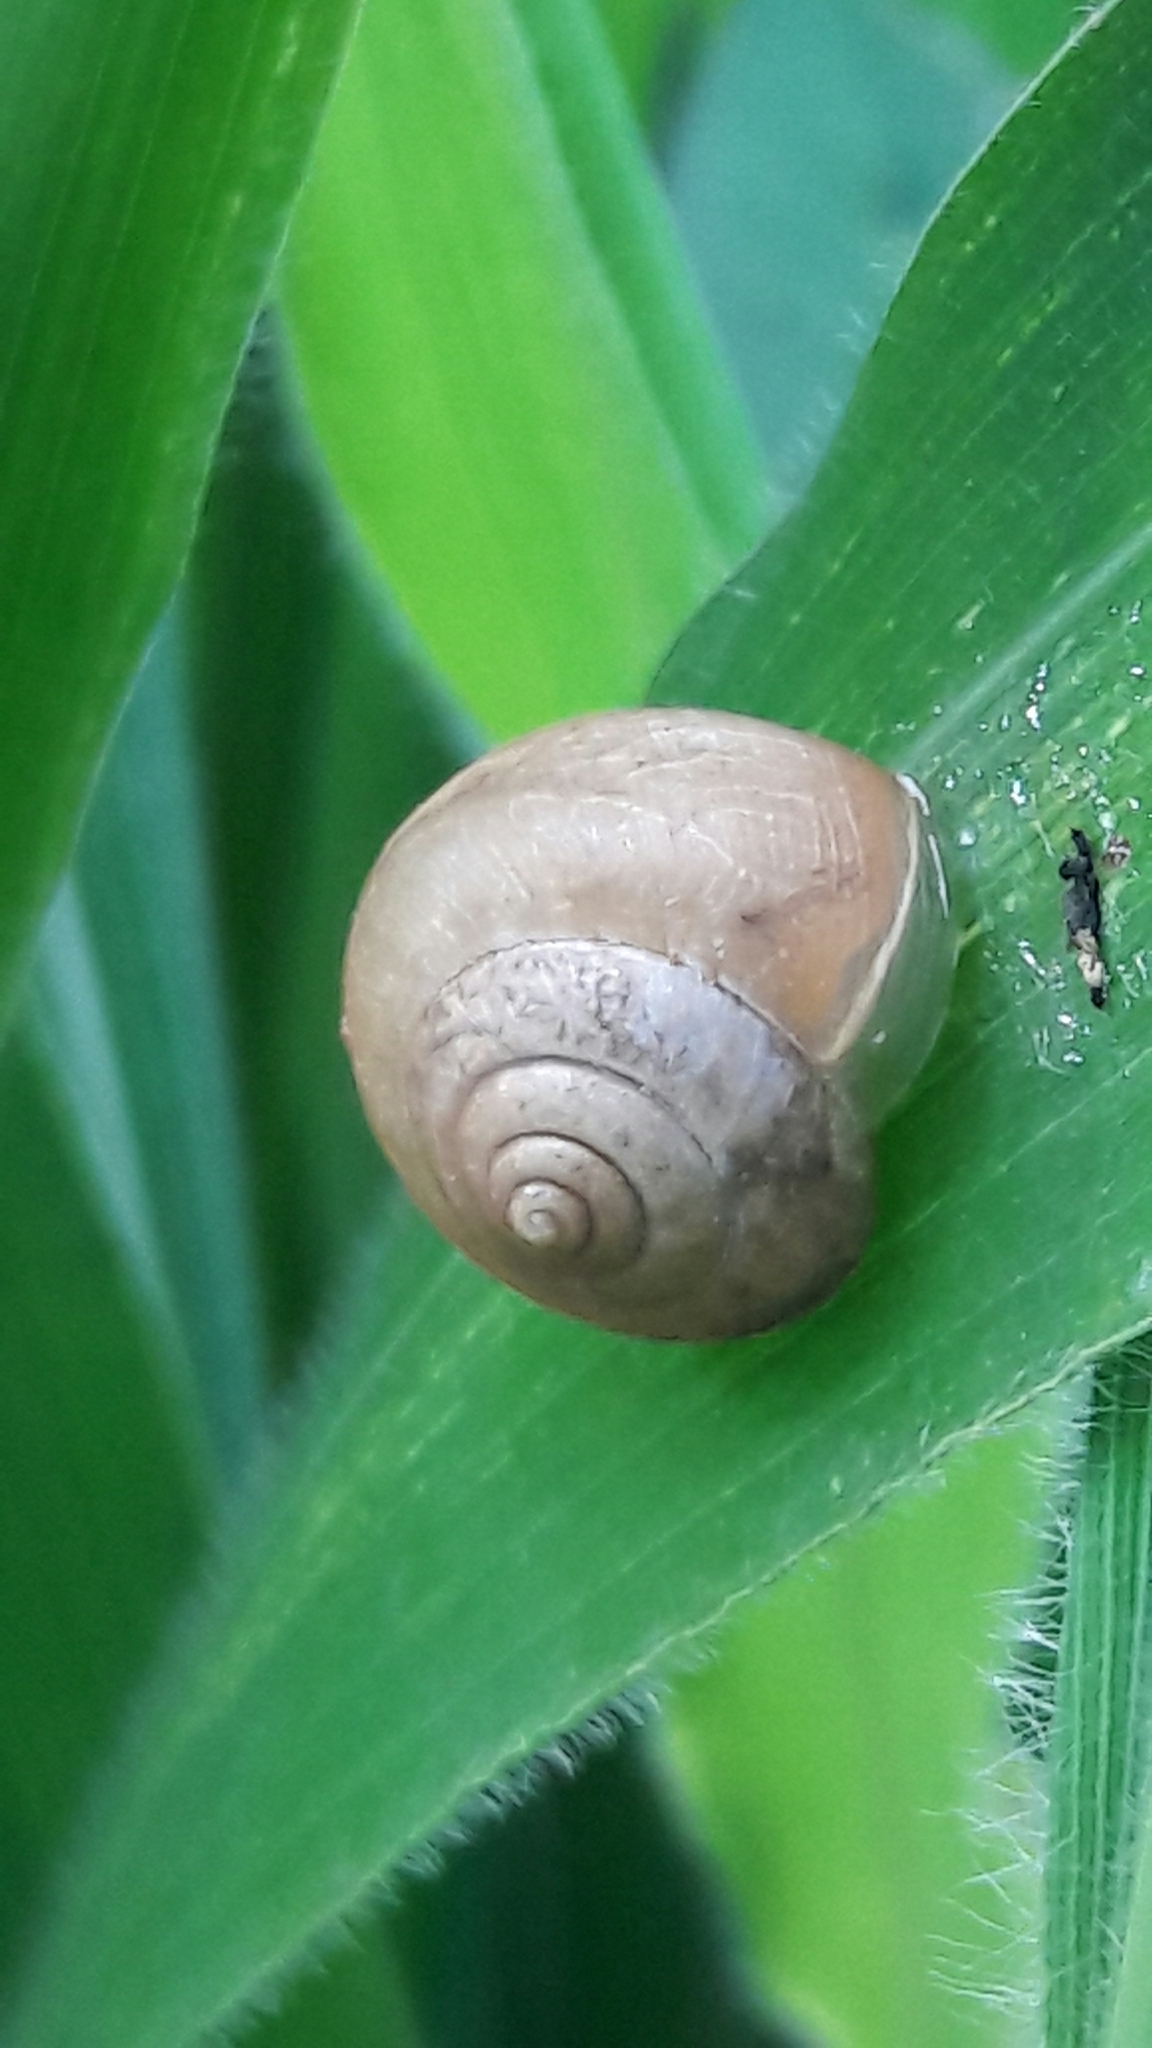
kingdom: Animalia
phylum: Mollusca
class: Gastropoda
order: Stylommatophora
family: Camaenidae
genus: Bradybaena
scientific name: Bradybaena similaris
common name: Asian trampsnail
